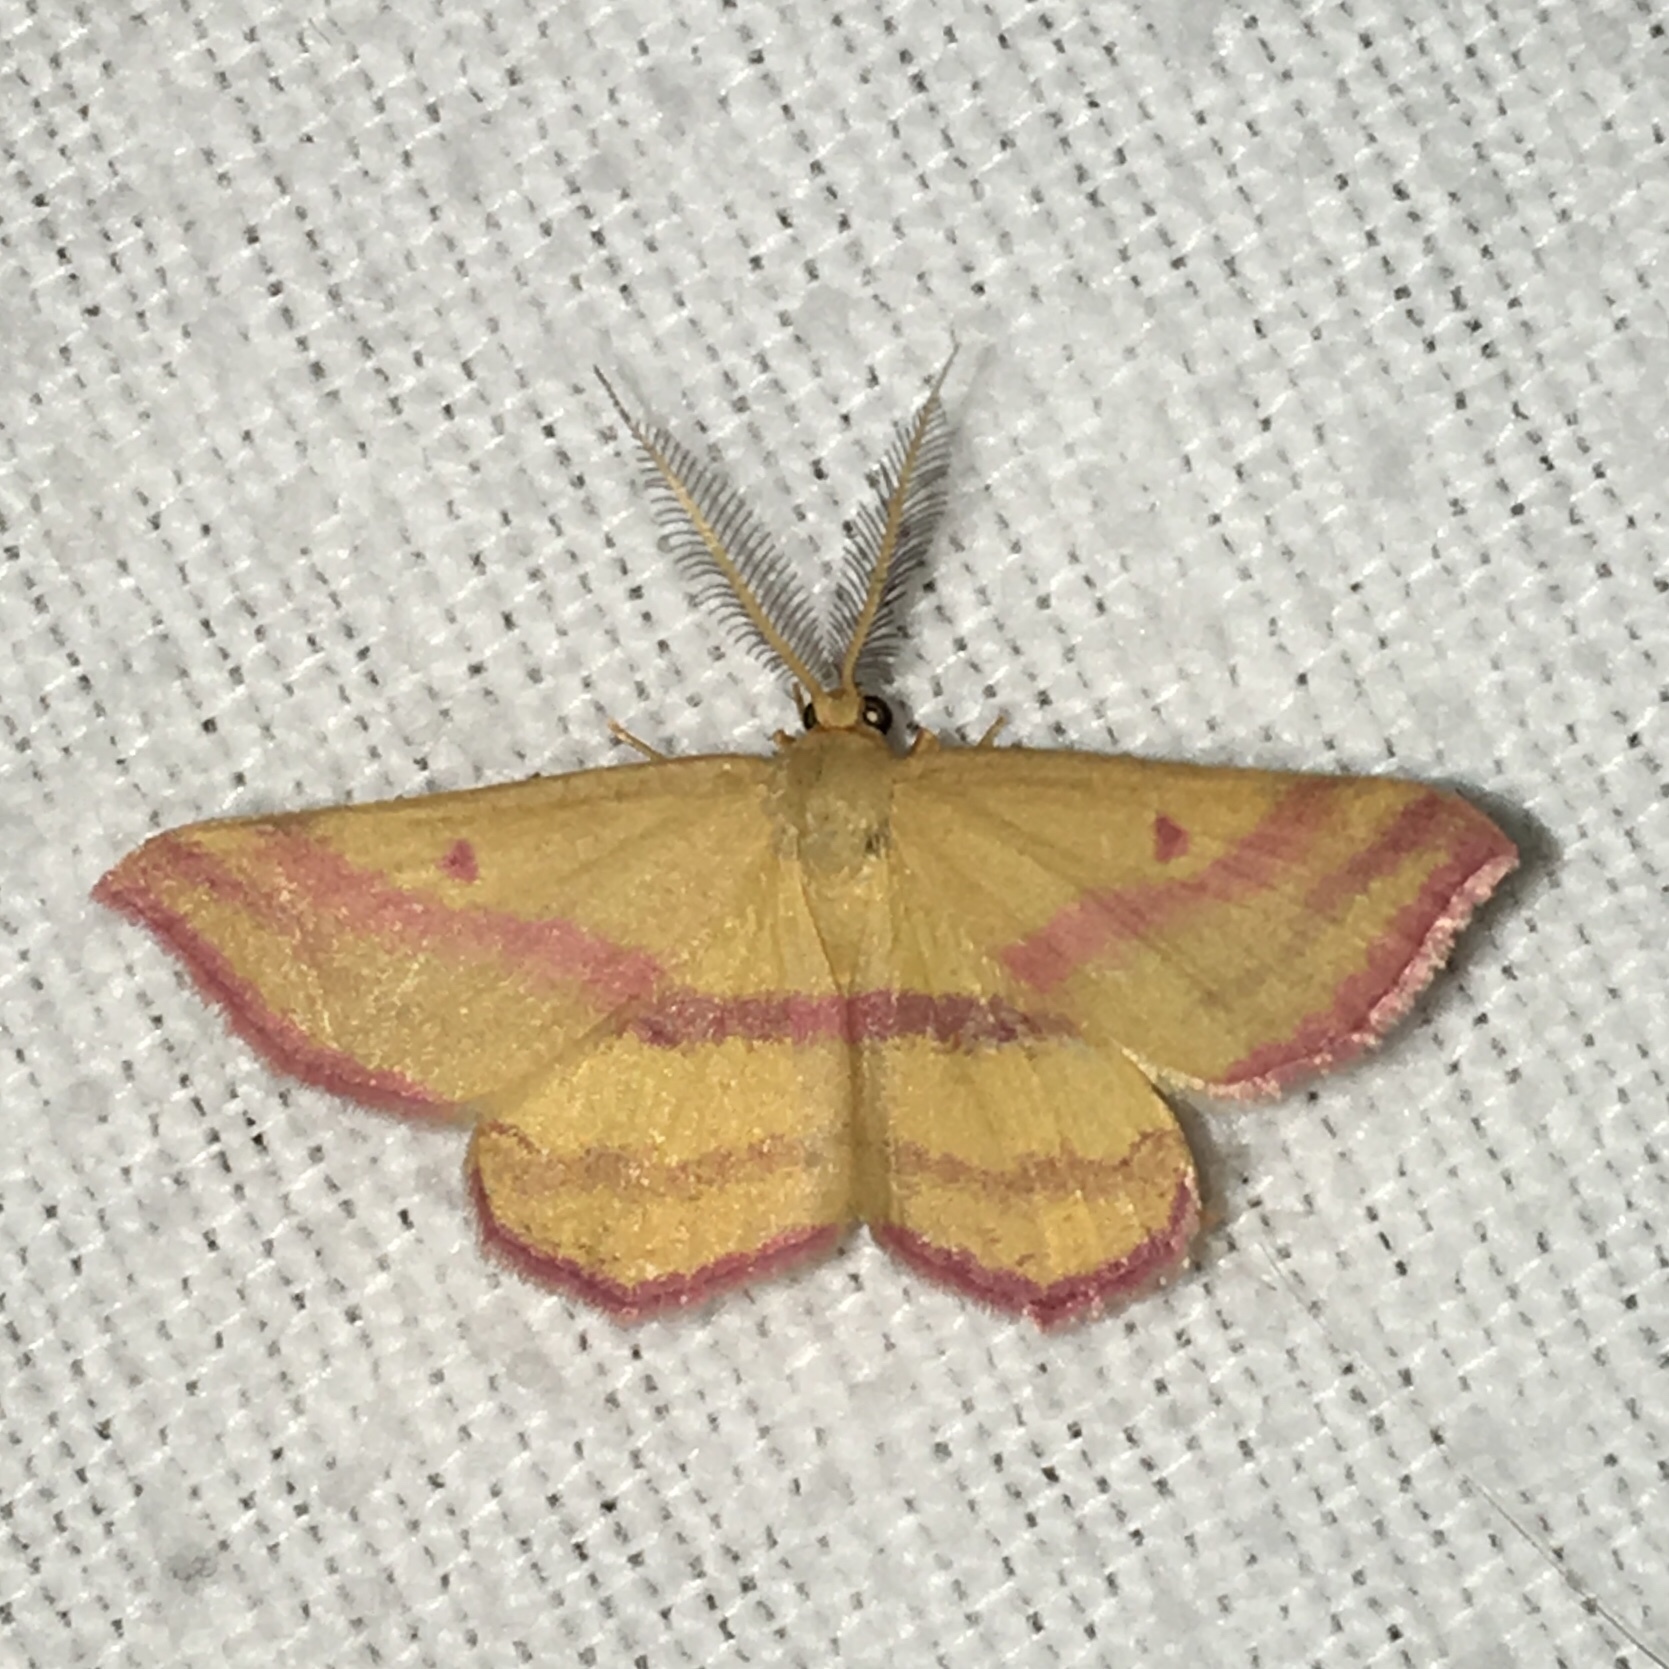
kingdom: Animalia
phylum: Arthropoda
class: Insecta
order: Lepidoptera
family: Geometridae
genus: Haematopis
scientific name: Haematopis grataria
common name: Chickweed geometer
